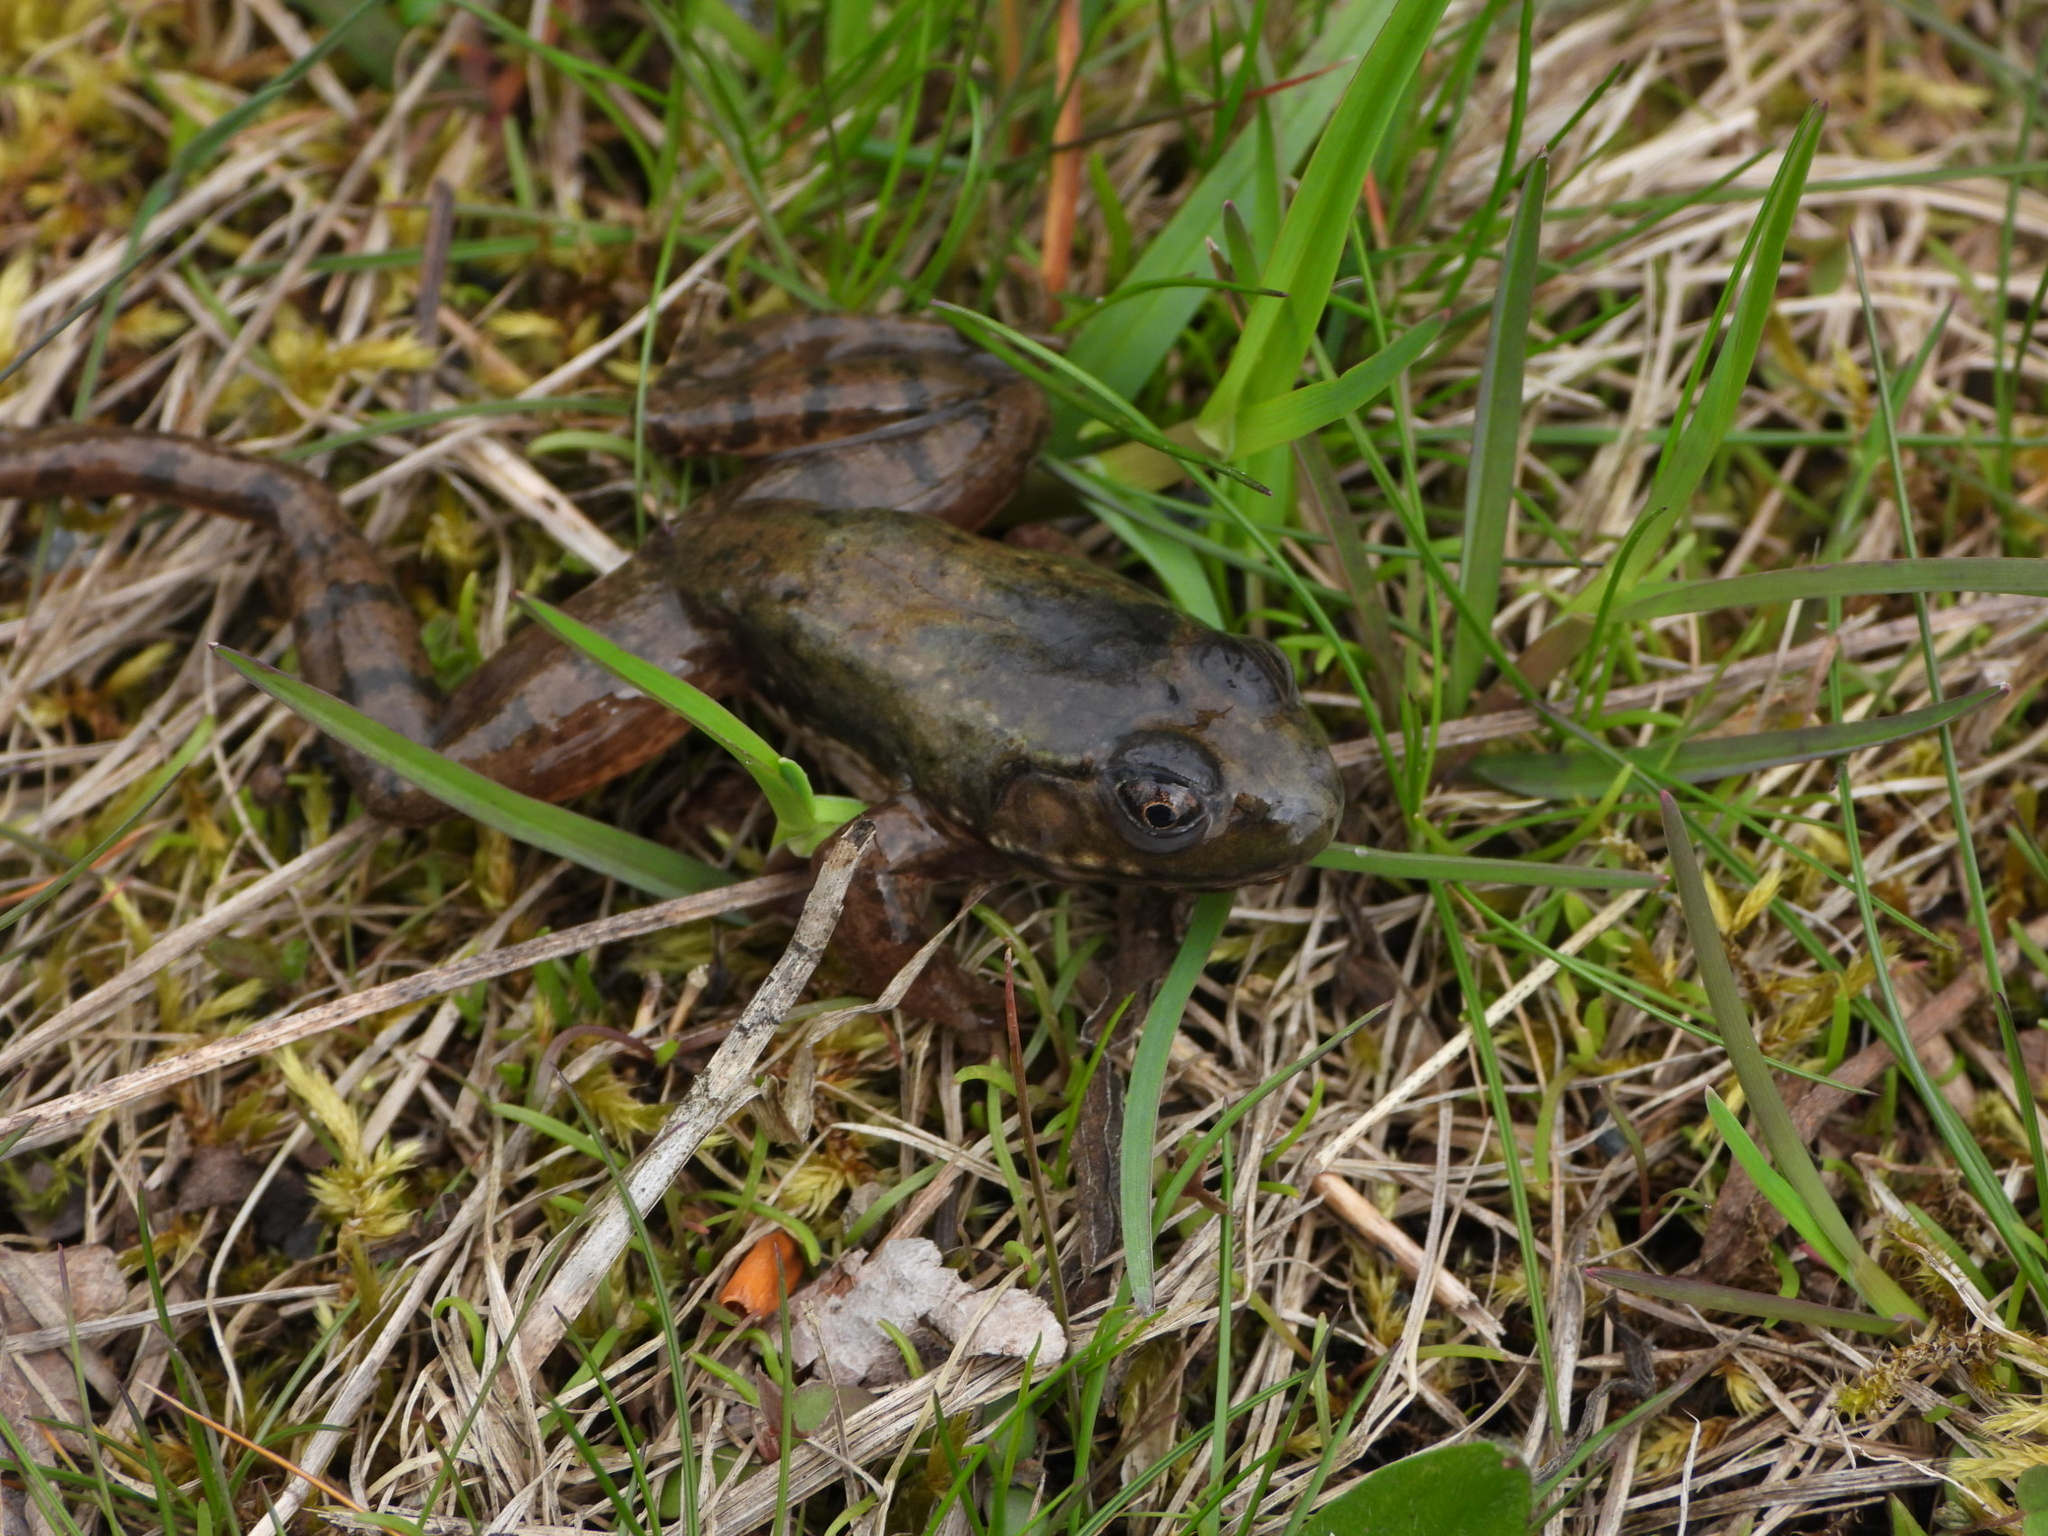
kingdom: Animalia
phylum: Chordata
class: Amphibia
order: Anura
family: Ranidae
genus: Lithobates
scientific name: Lithobates catesbeianus
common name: American bullfrog
